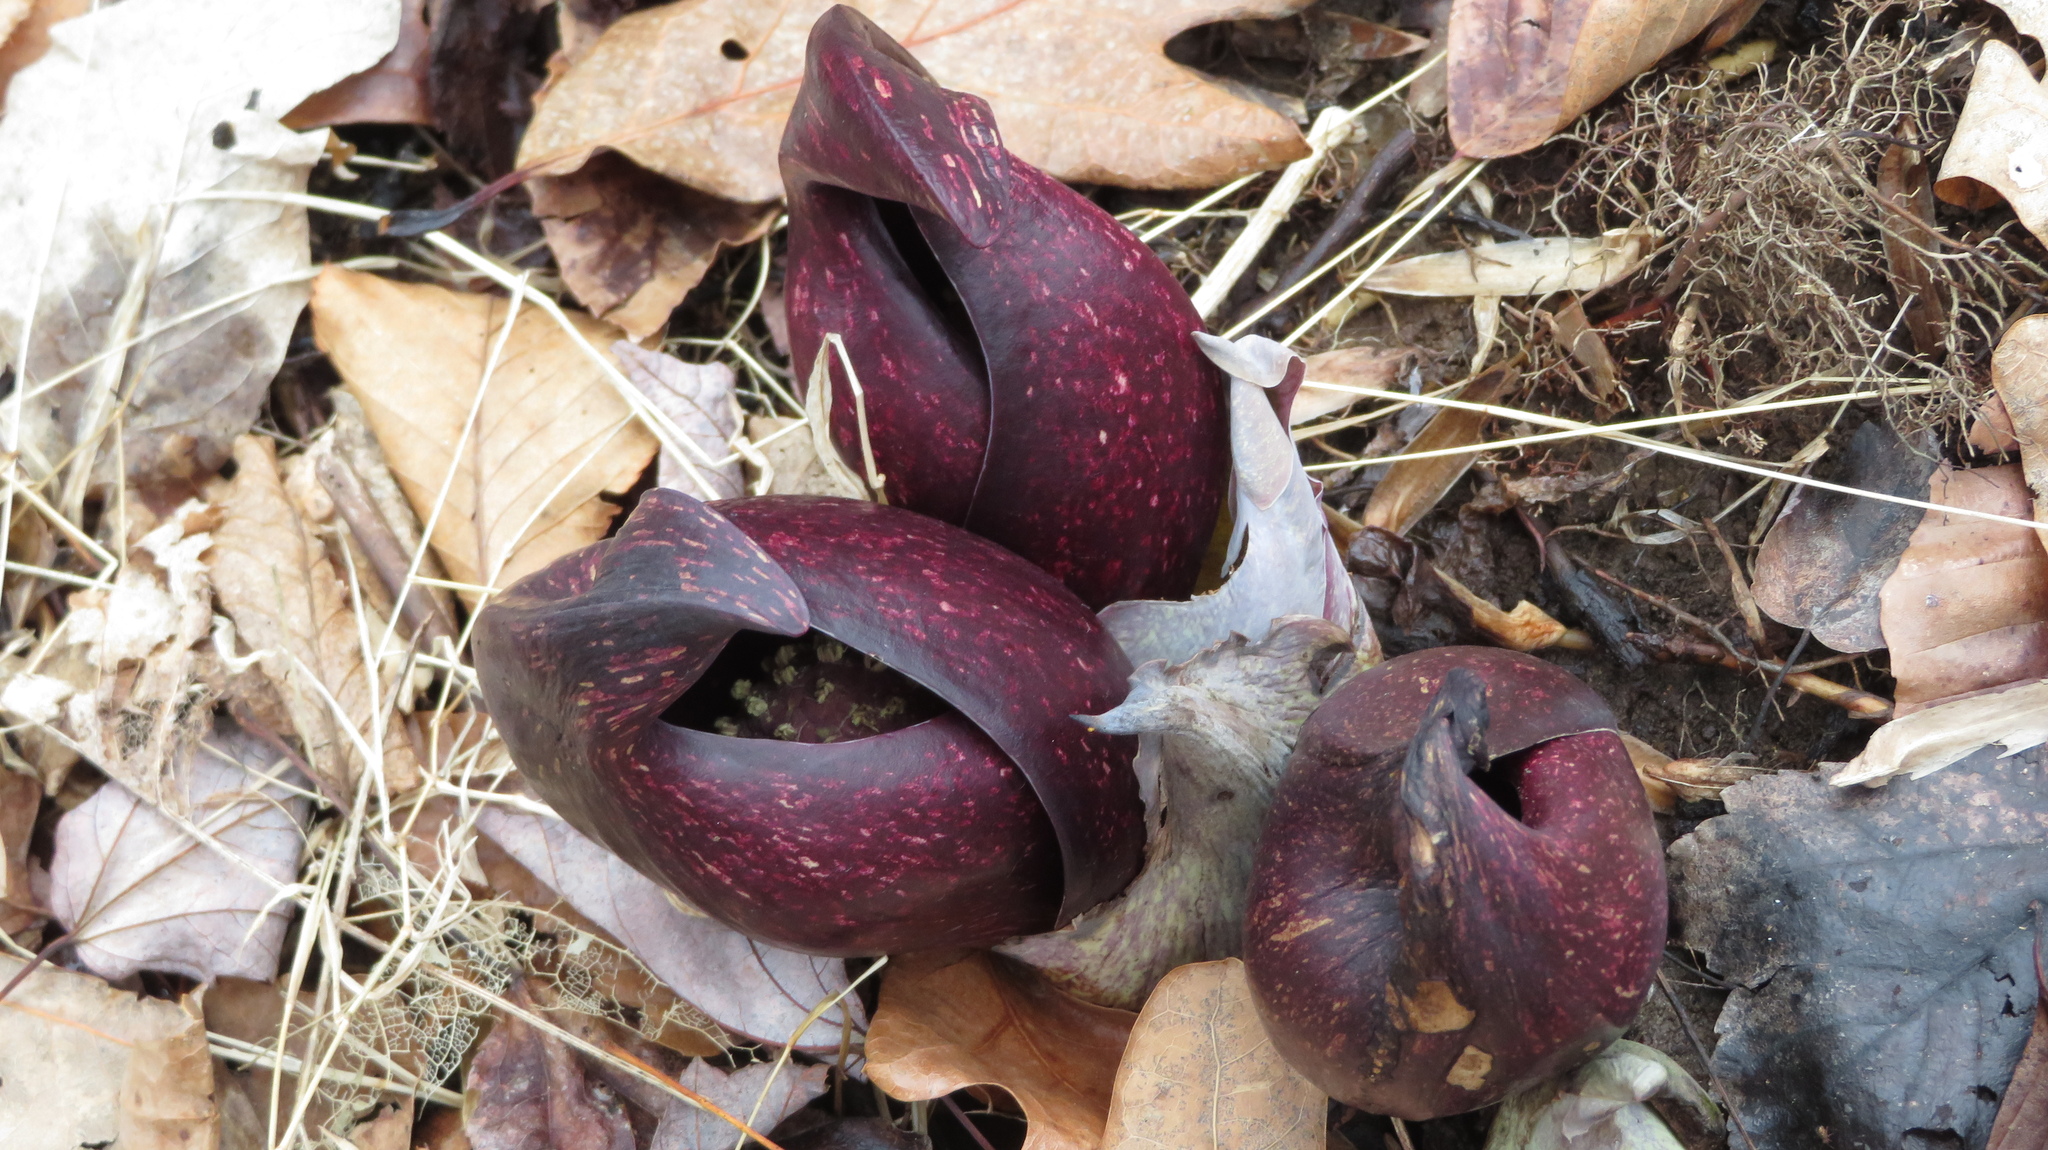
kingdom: Plantae
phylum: Tracheophyta
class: Liliopsida
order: Alismatales
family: Araceae
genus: Symplocarpus
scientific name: Symplocarpus foetidus
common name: Eastern skunk cabbage
